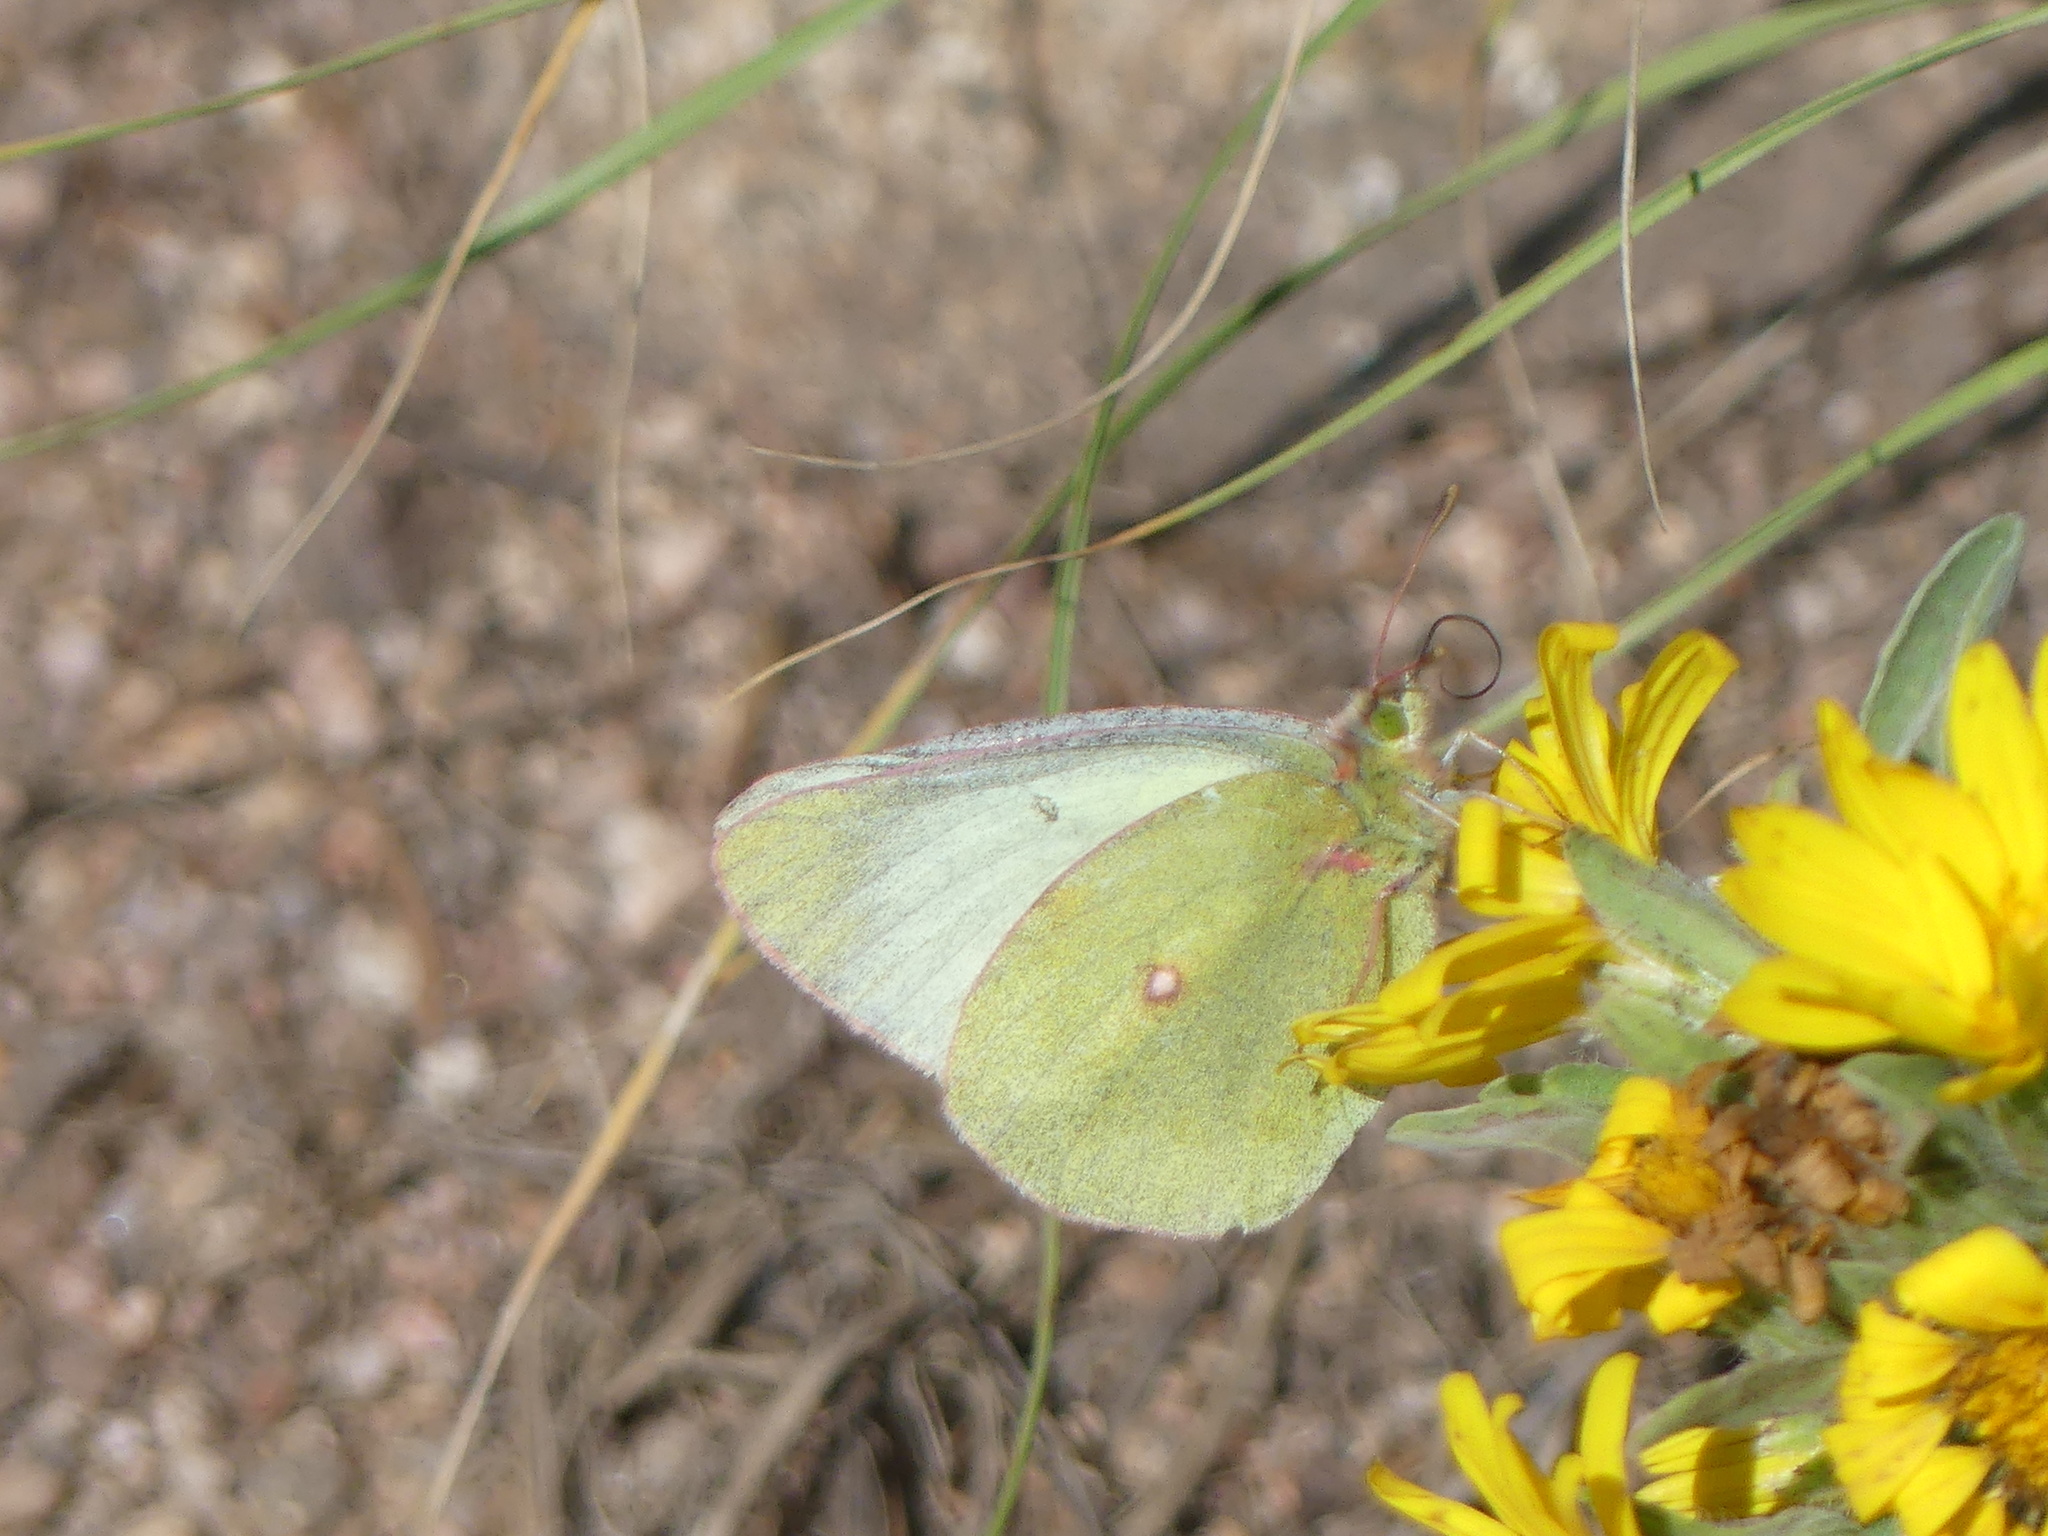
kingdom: Animalia
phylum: Arthropoda
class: Insecta
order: Lepidoptera
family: Pieridae
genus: Colias
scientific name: Colias scudderi
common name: Willow sulphur
